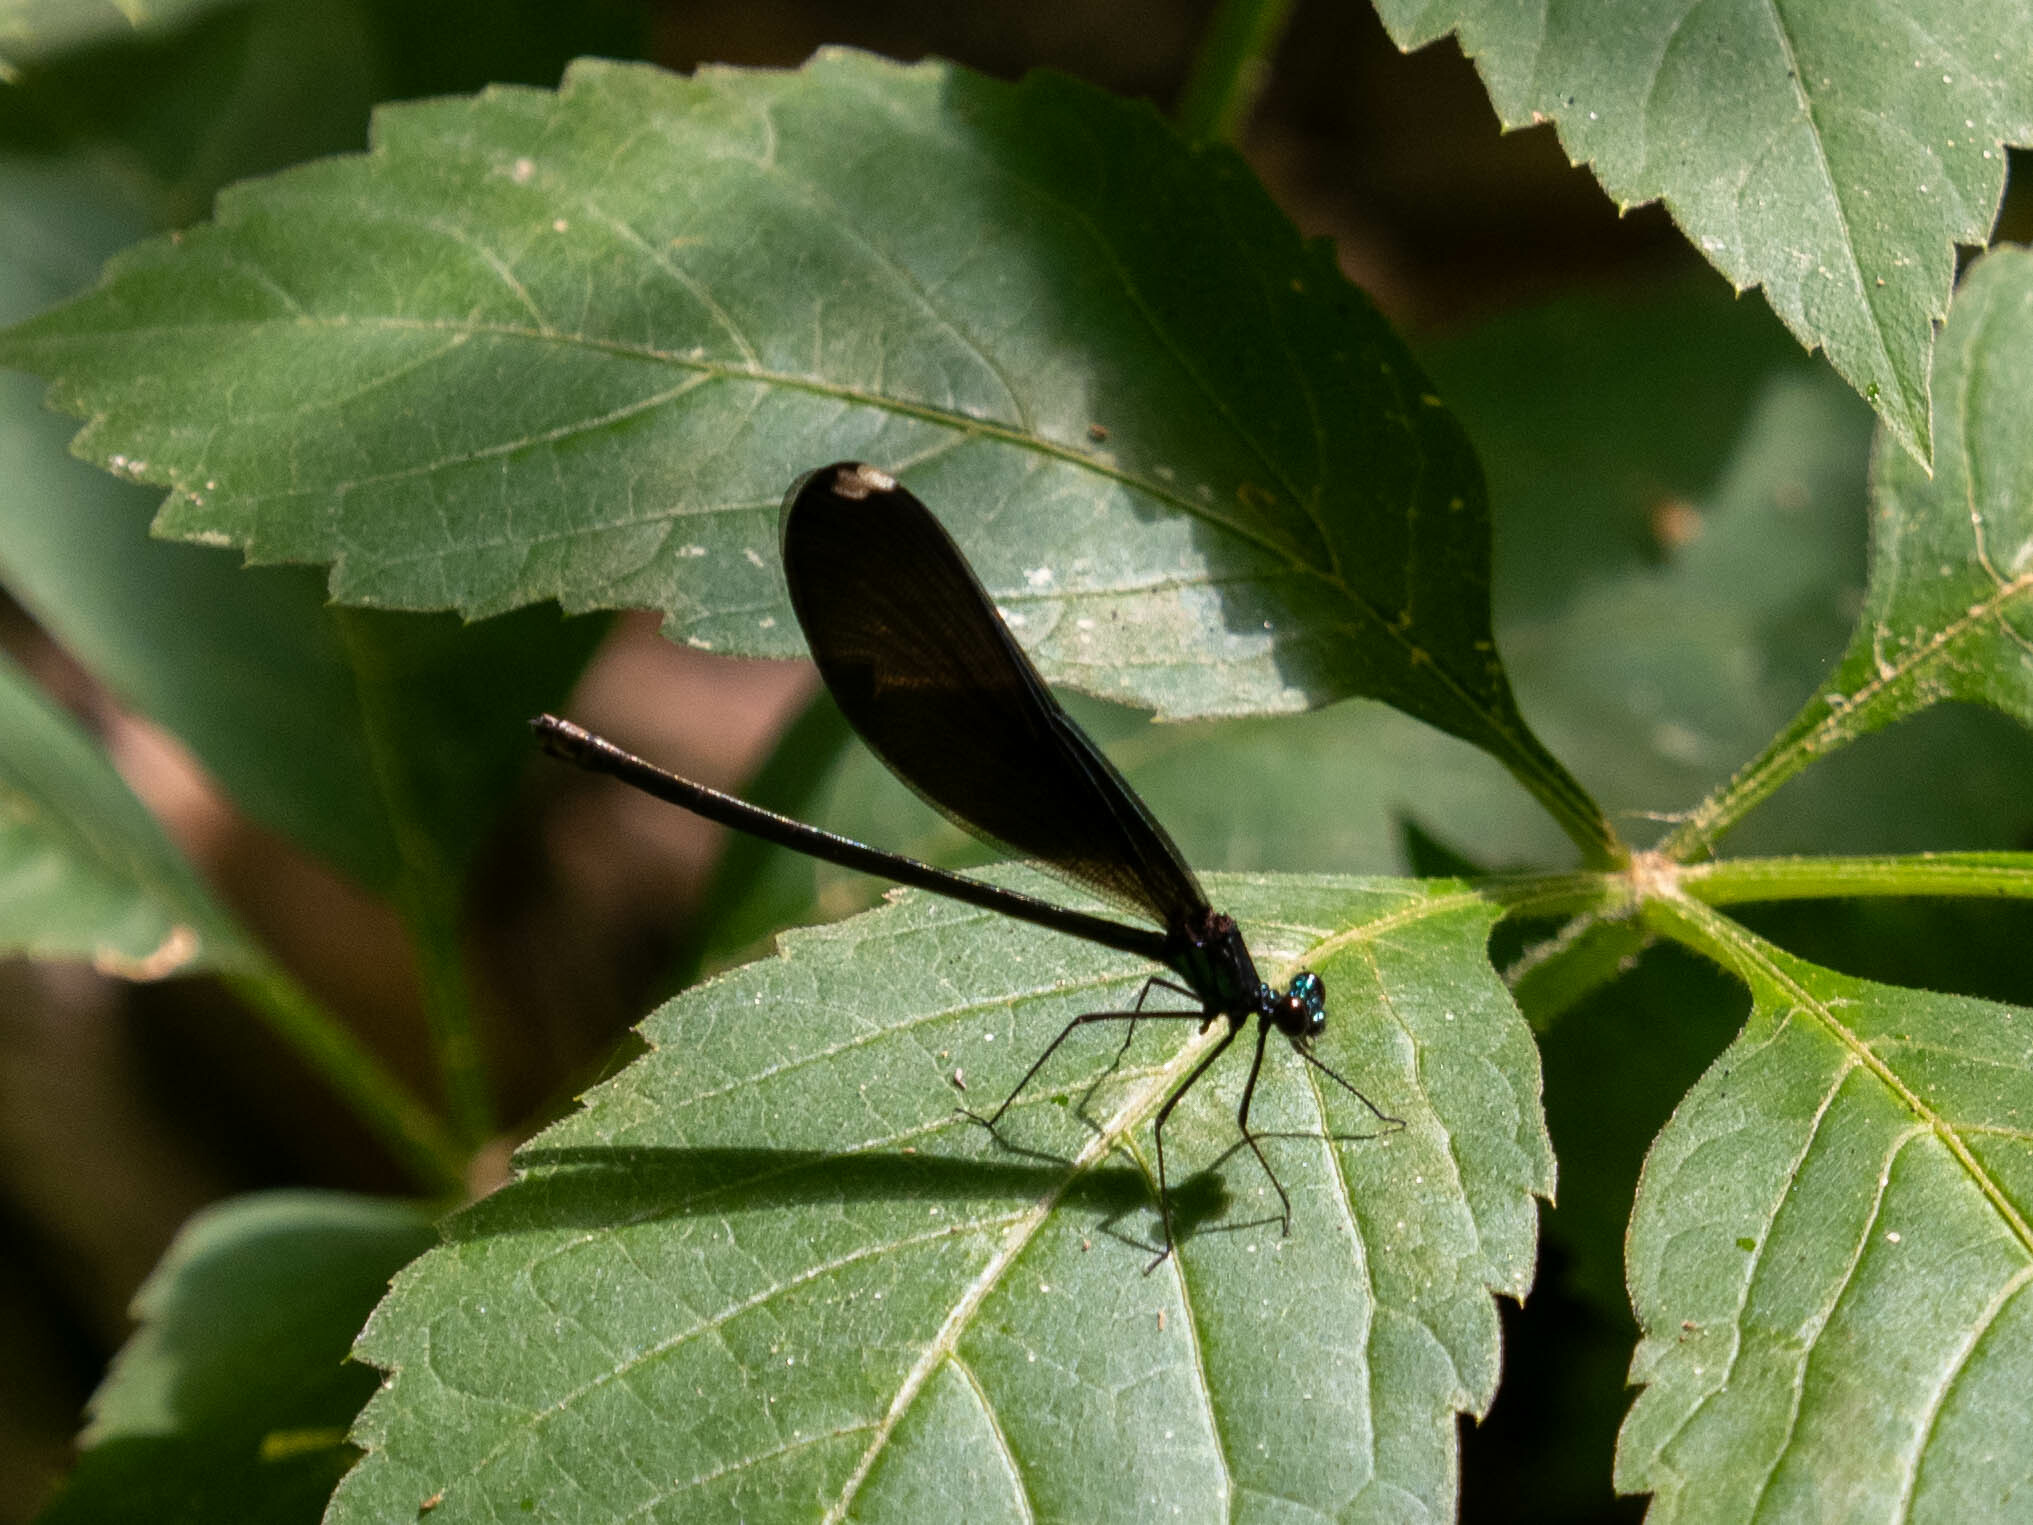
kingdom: Animalia
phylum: Arthropoda
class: Insecta
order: Odonata
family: Calopterygidae
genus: Calopteryx
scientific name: Calopteryx maculata
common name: Ebony jewelwing
